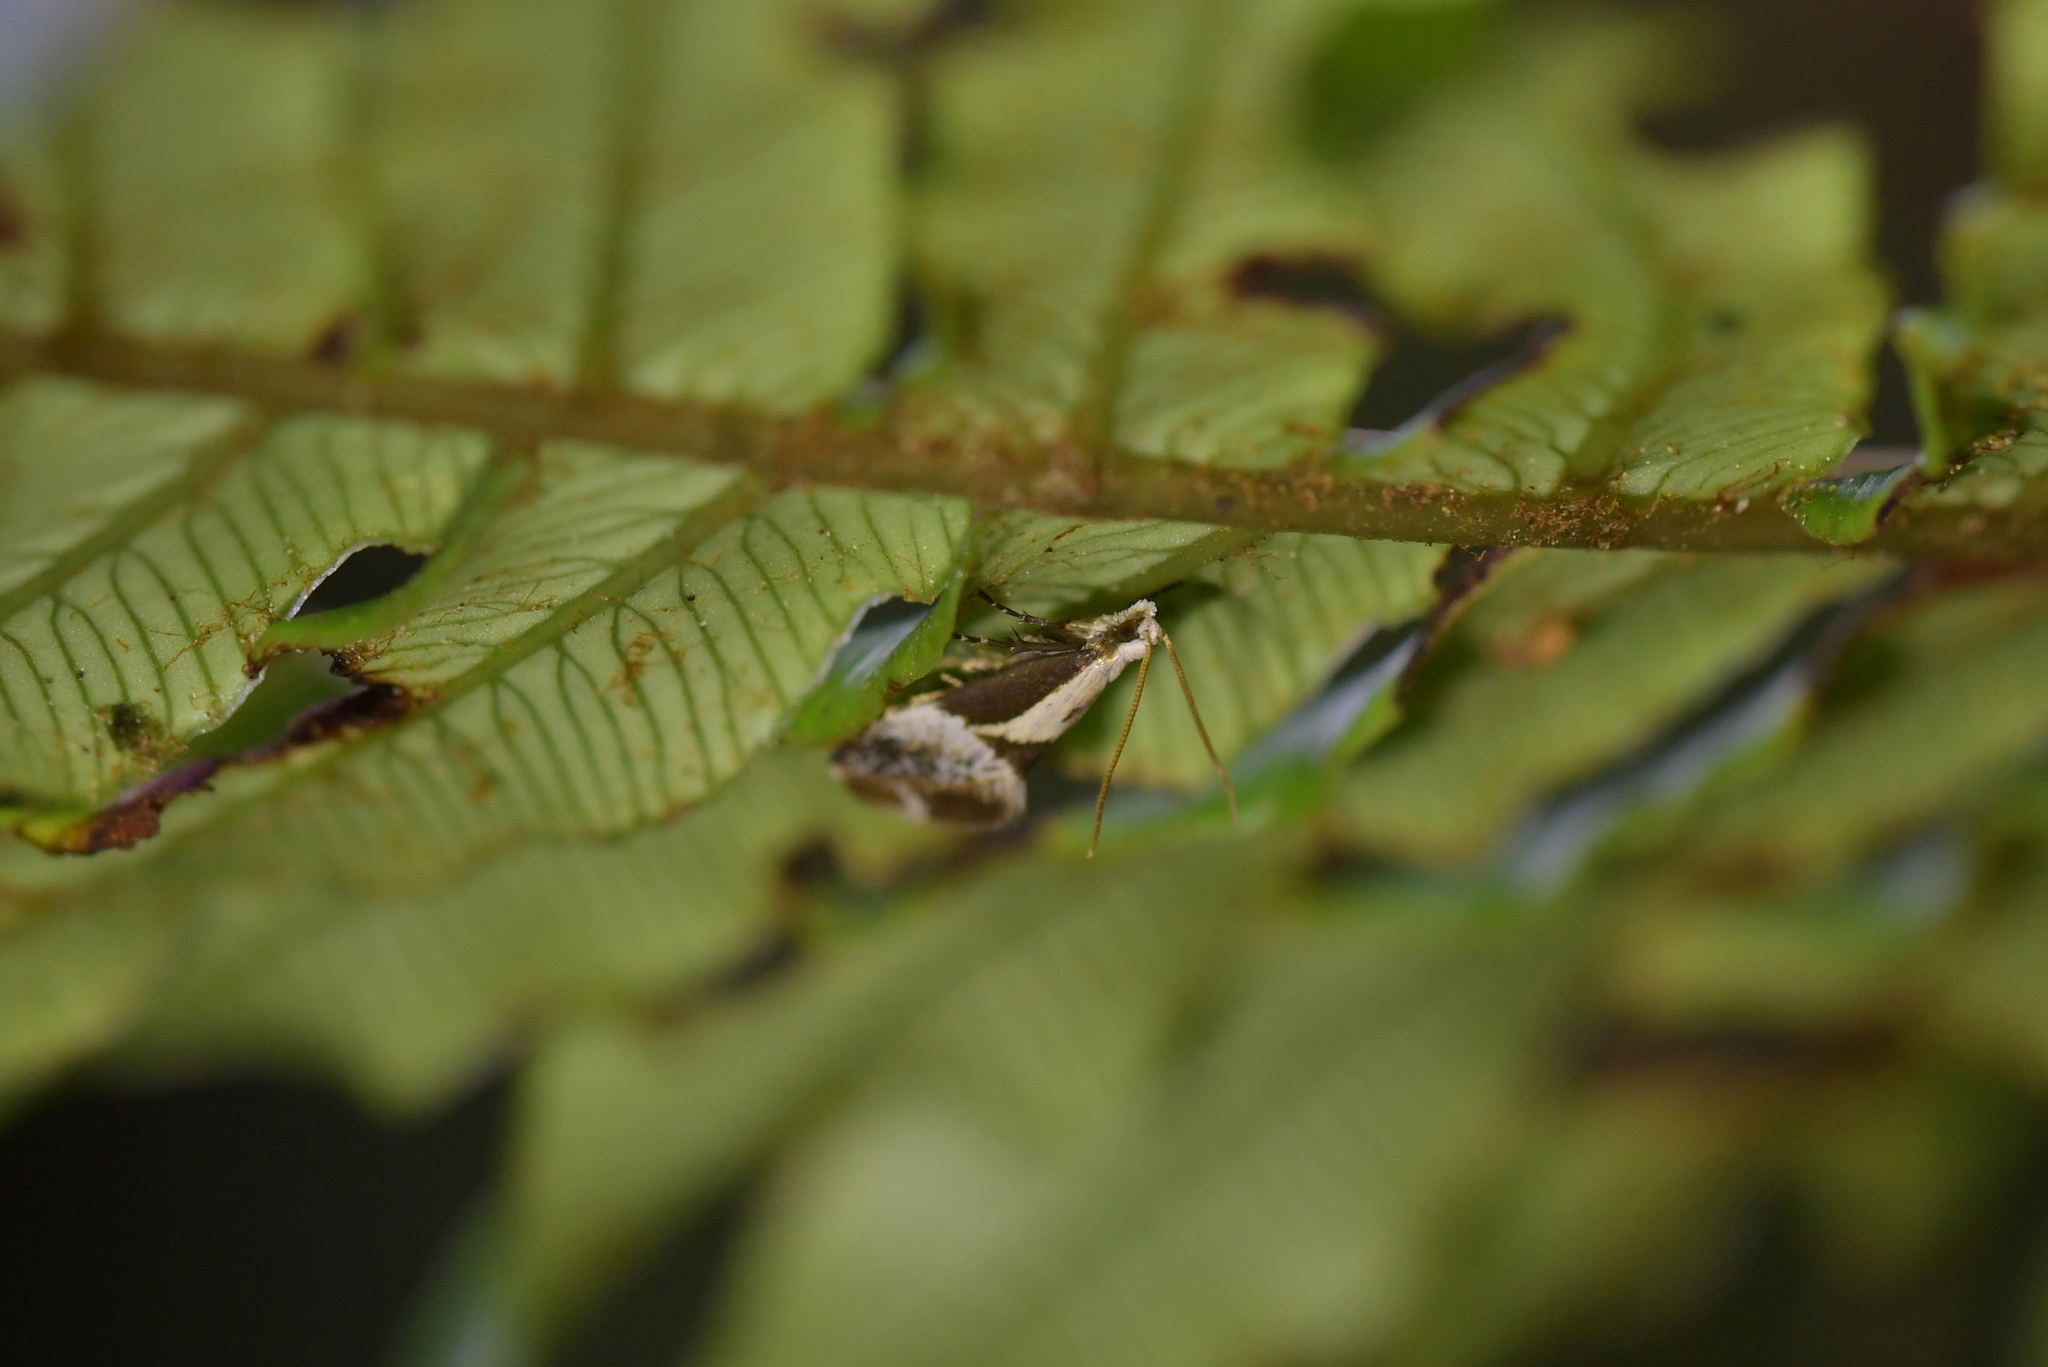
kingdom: Animalia
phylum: Arthropoda
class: Insecta
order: Lepidoptera
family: Mnesarchaeidae
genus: Mnesarchella
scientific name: Mnesarchella fusilella
